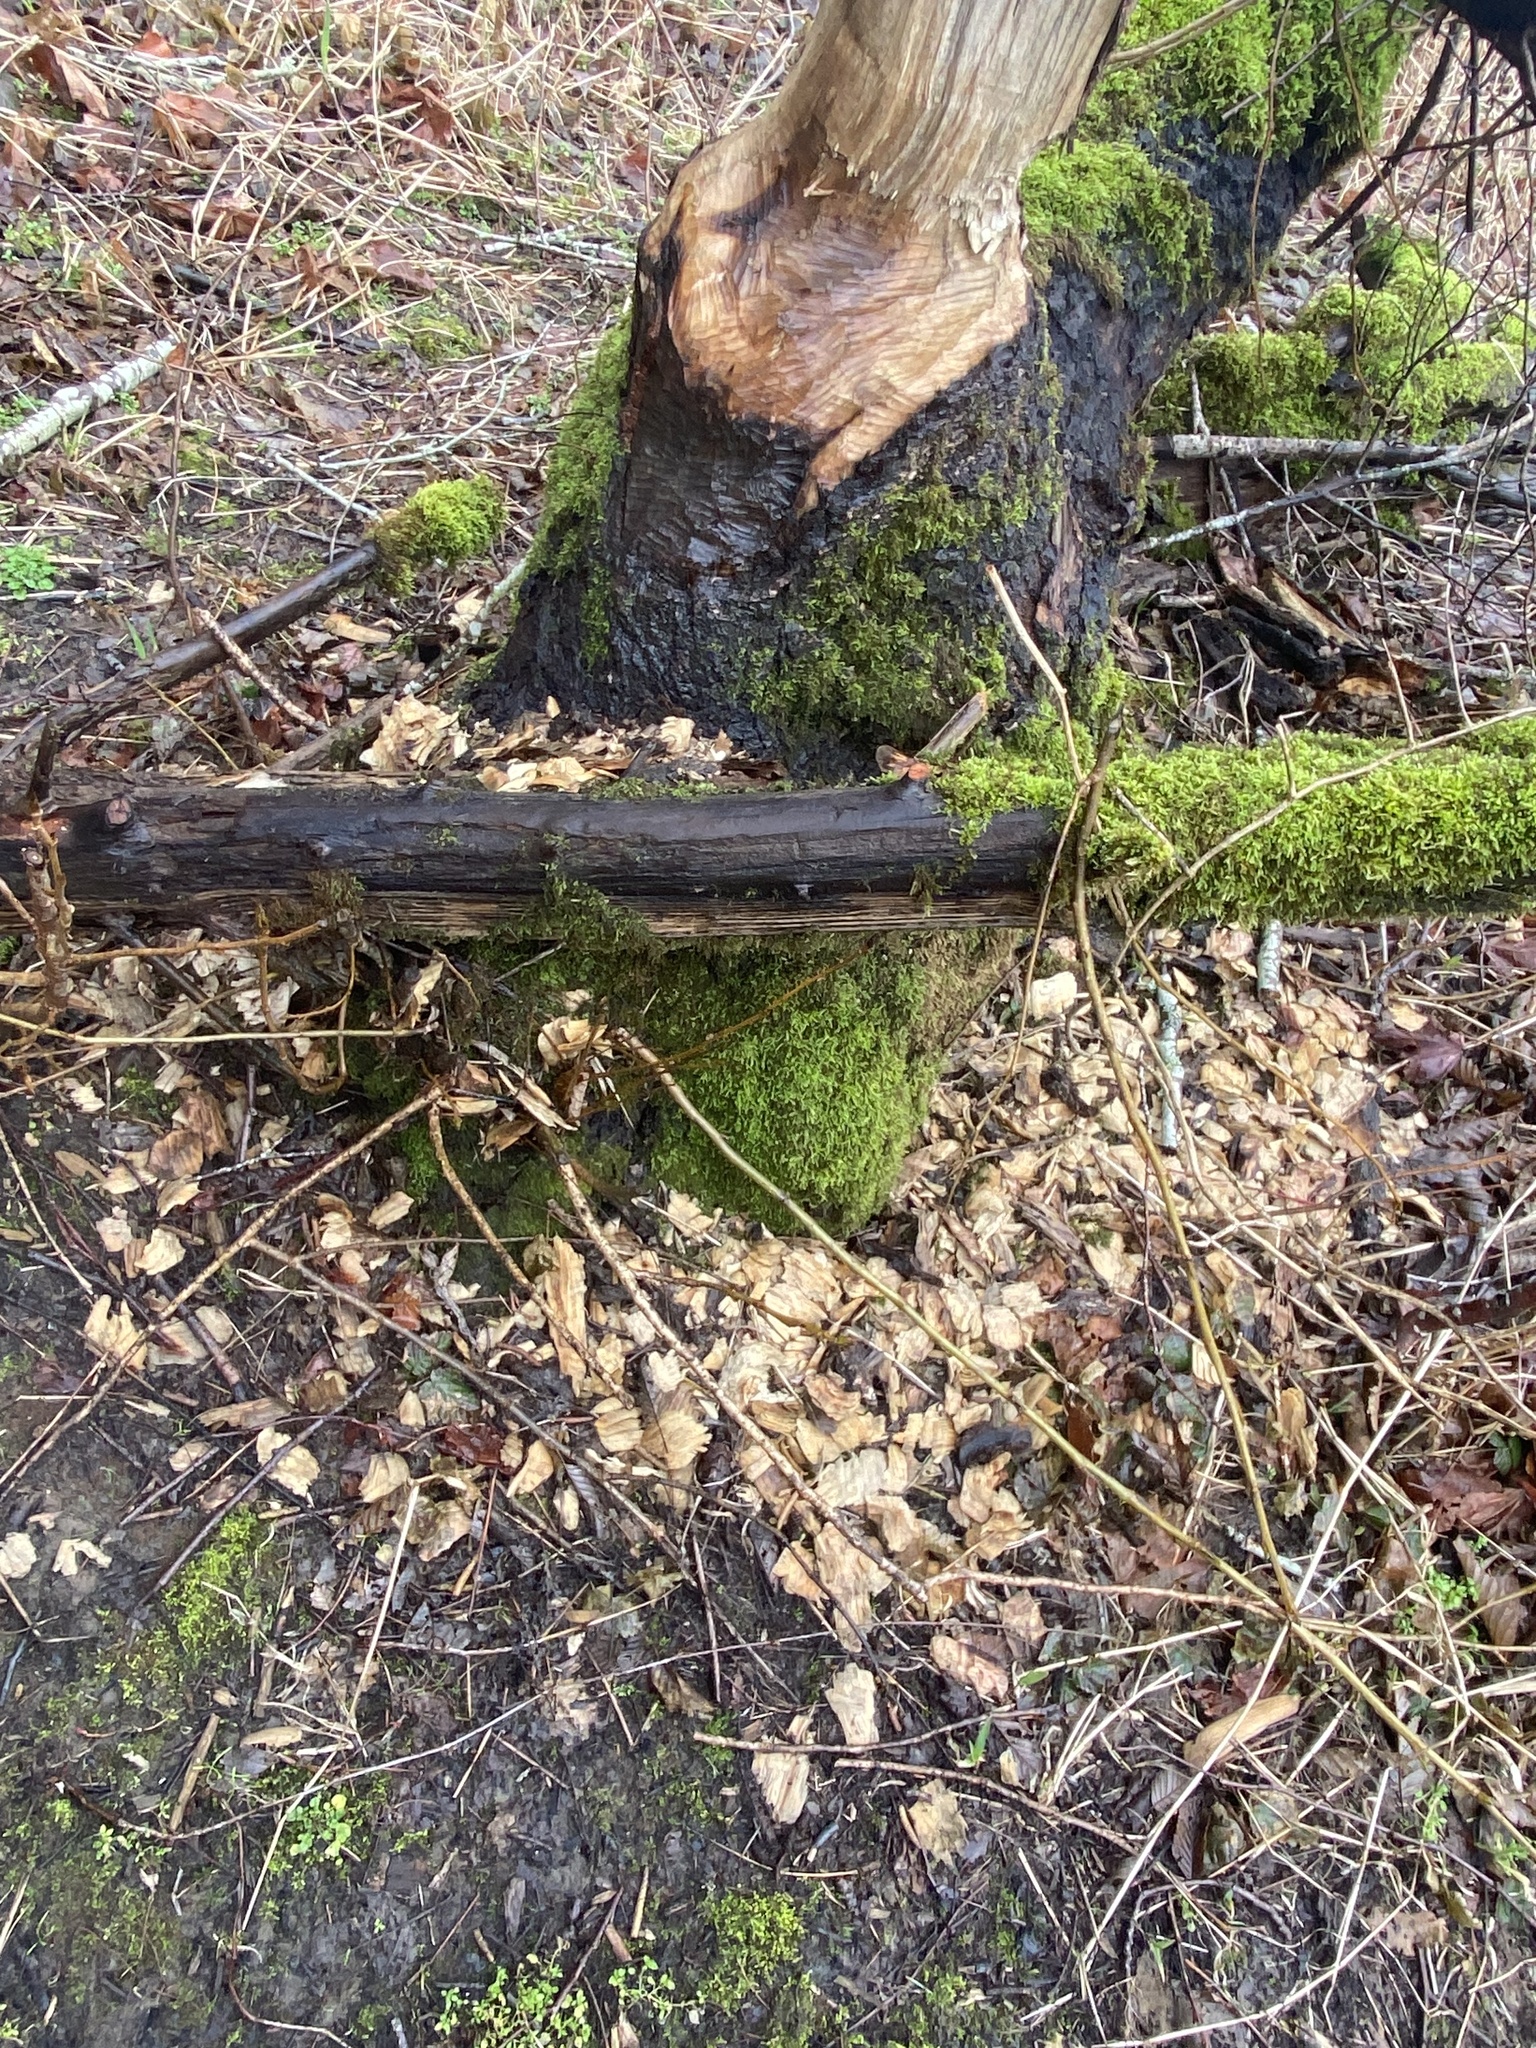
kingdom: Animalia
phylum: Chordata
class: Mammalia
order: Rodentia
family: Castoridae
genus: Castor
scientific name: Castor canadensis
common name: American beaver
